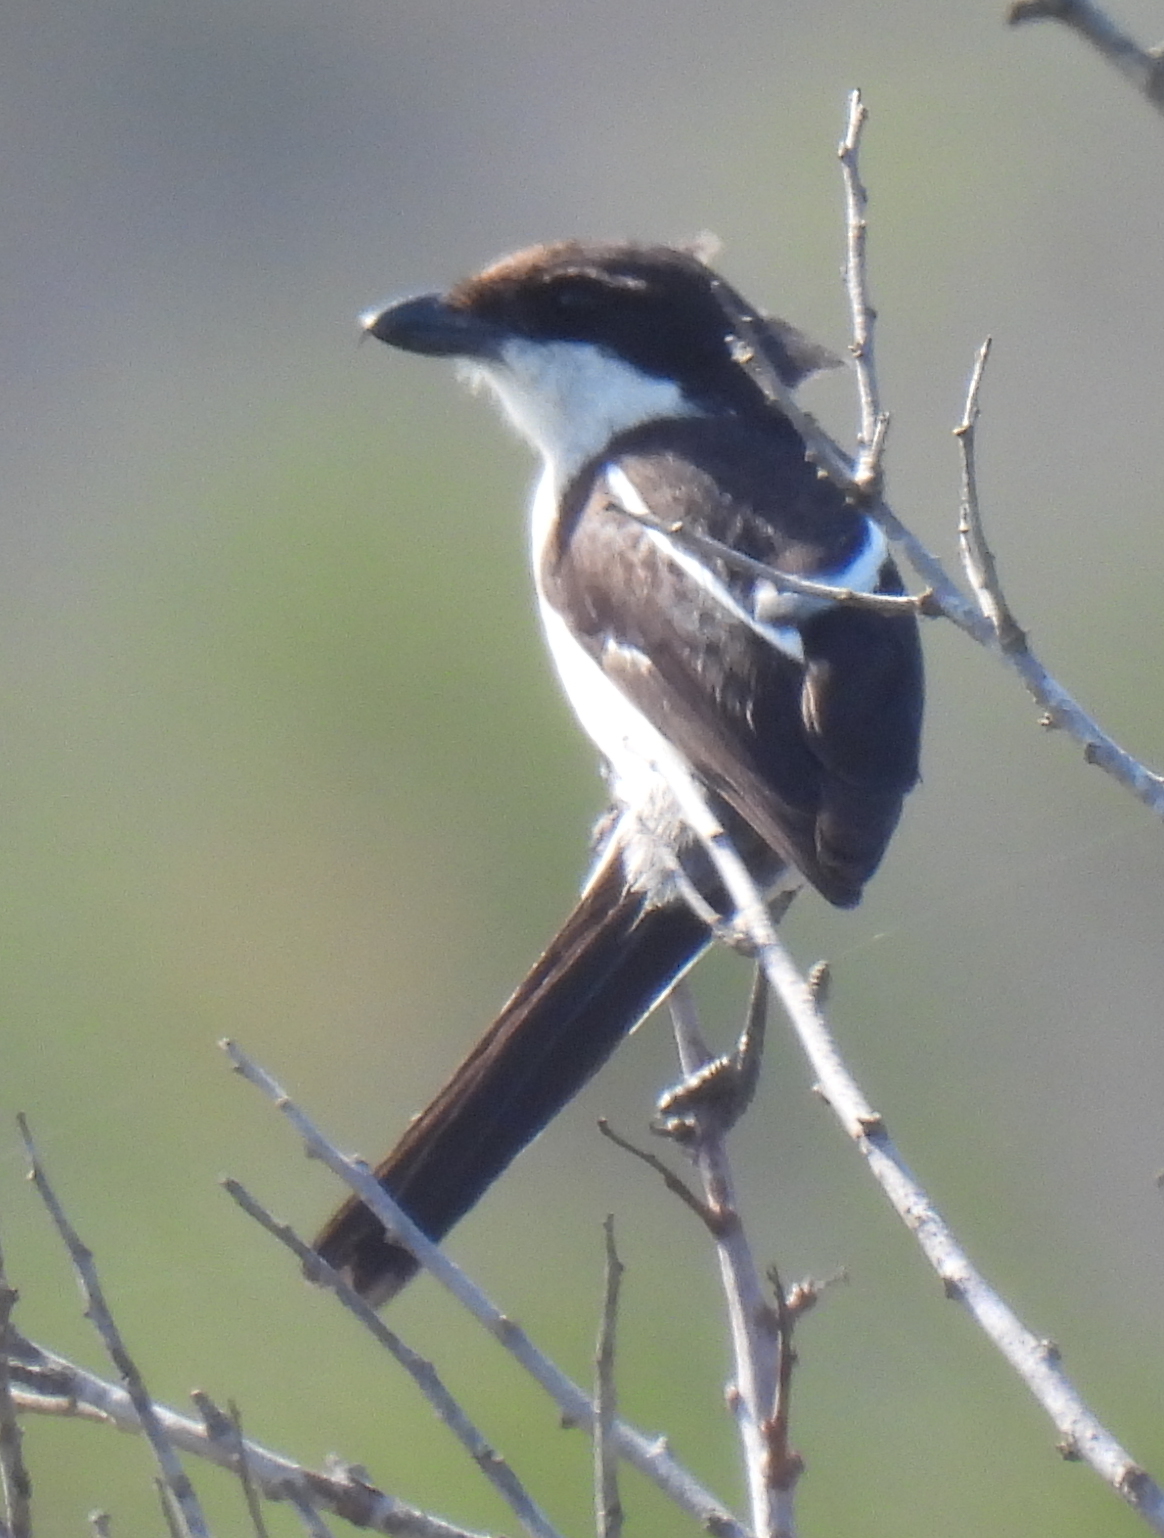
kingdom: Animalia
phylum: Chordata
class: Aves
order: Passeriformes
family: Laniidae
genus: Lanius
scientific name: Lanius collaris
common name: Southern fiscal
